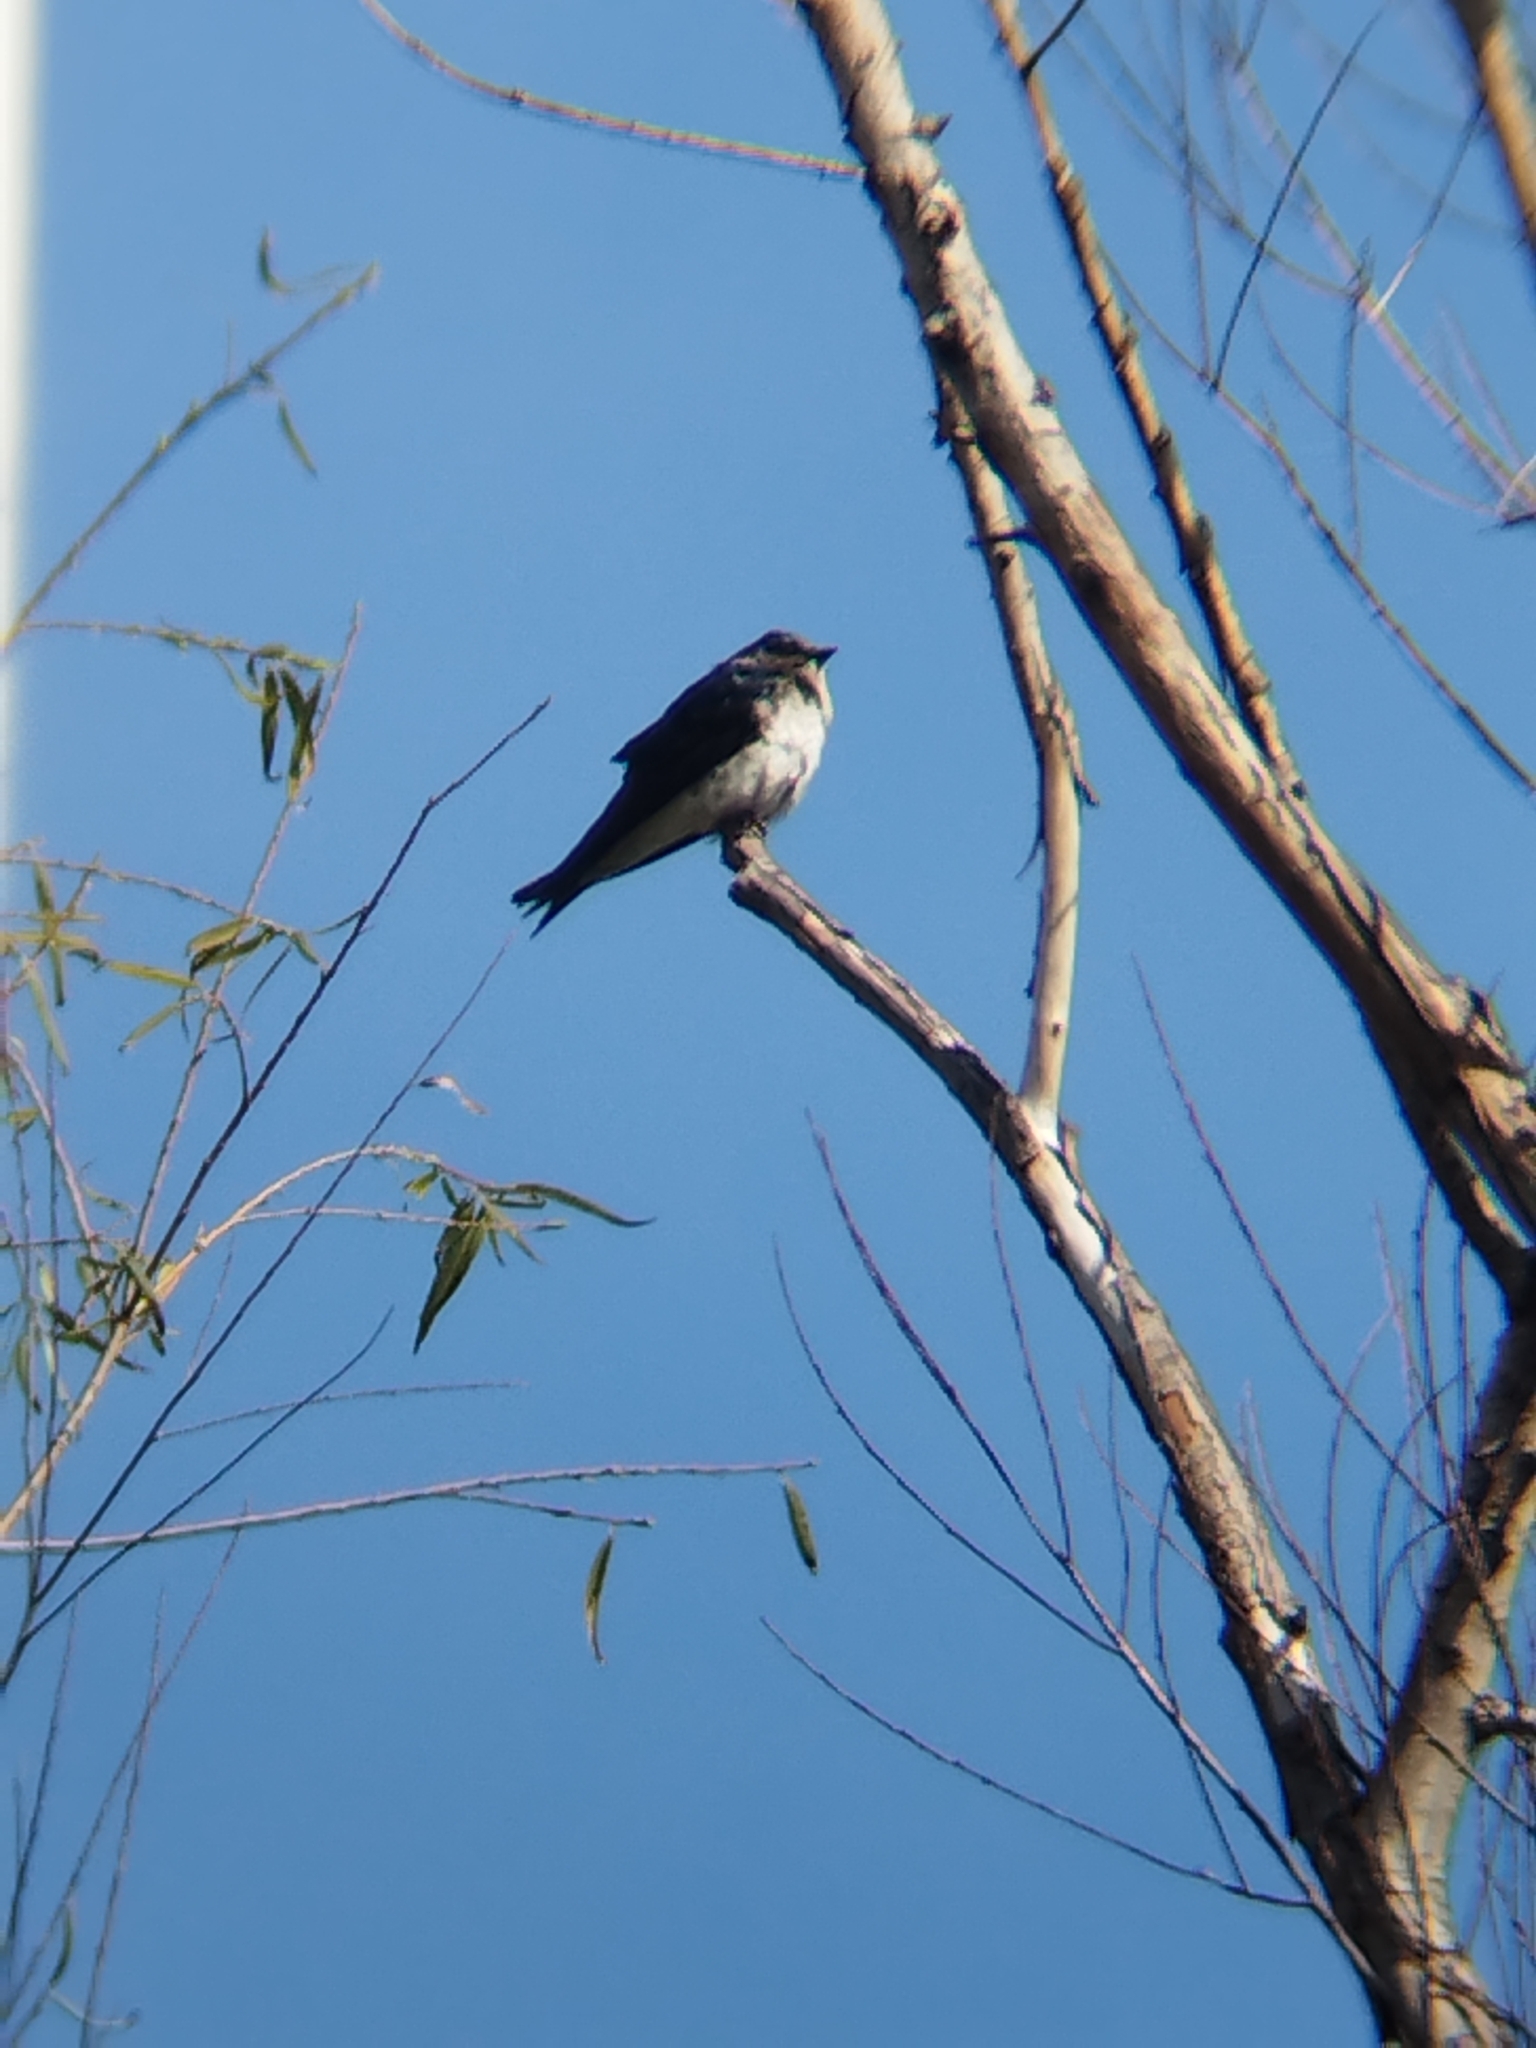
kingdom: Animalia
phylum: Chordata
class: Aves
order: Passeriformes
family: Hirundinidae
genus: Progne
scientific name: Progne chalybea
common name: Grey-breasted martin
